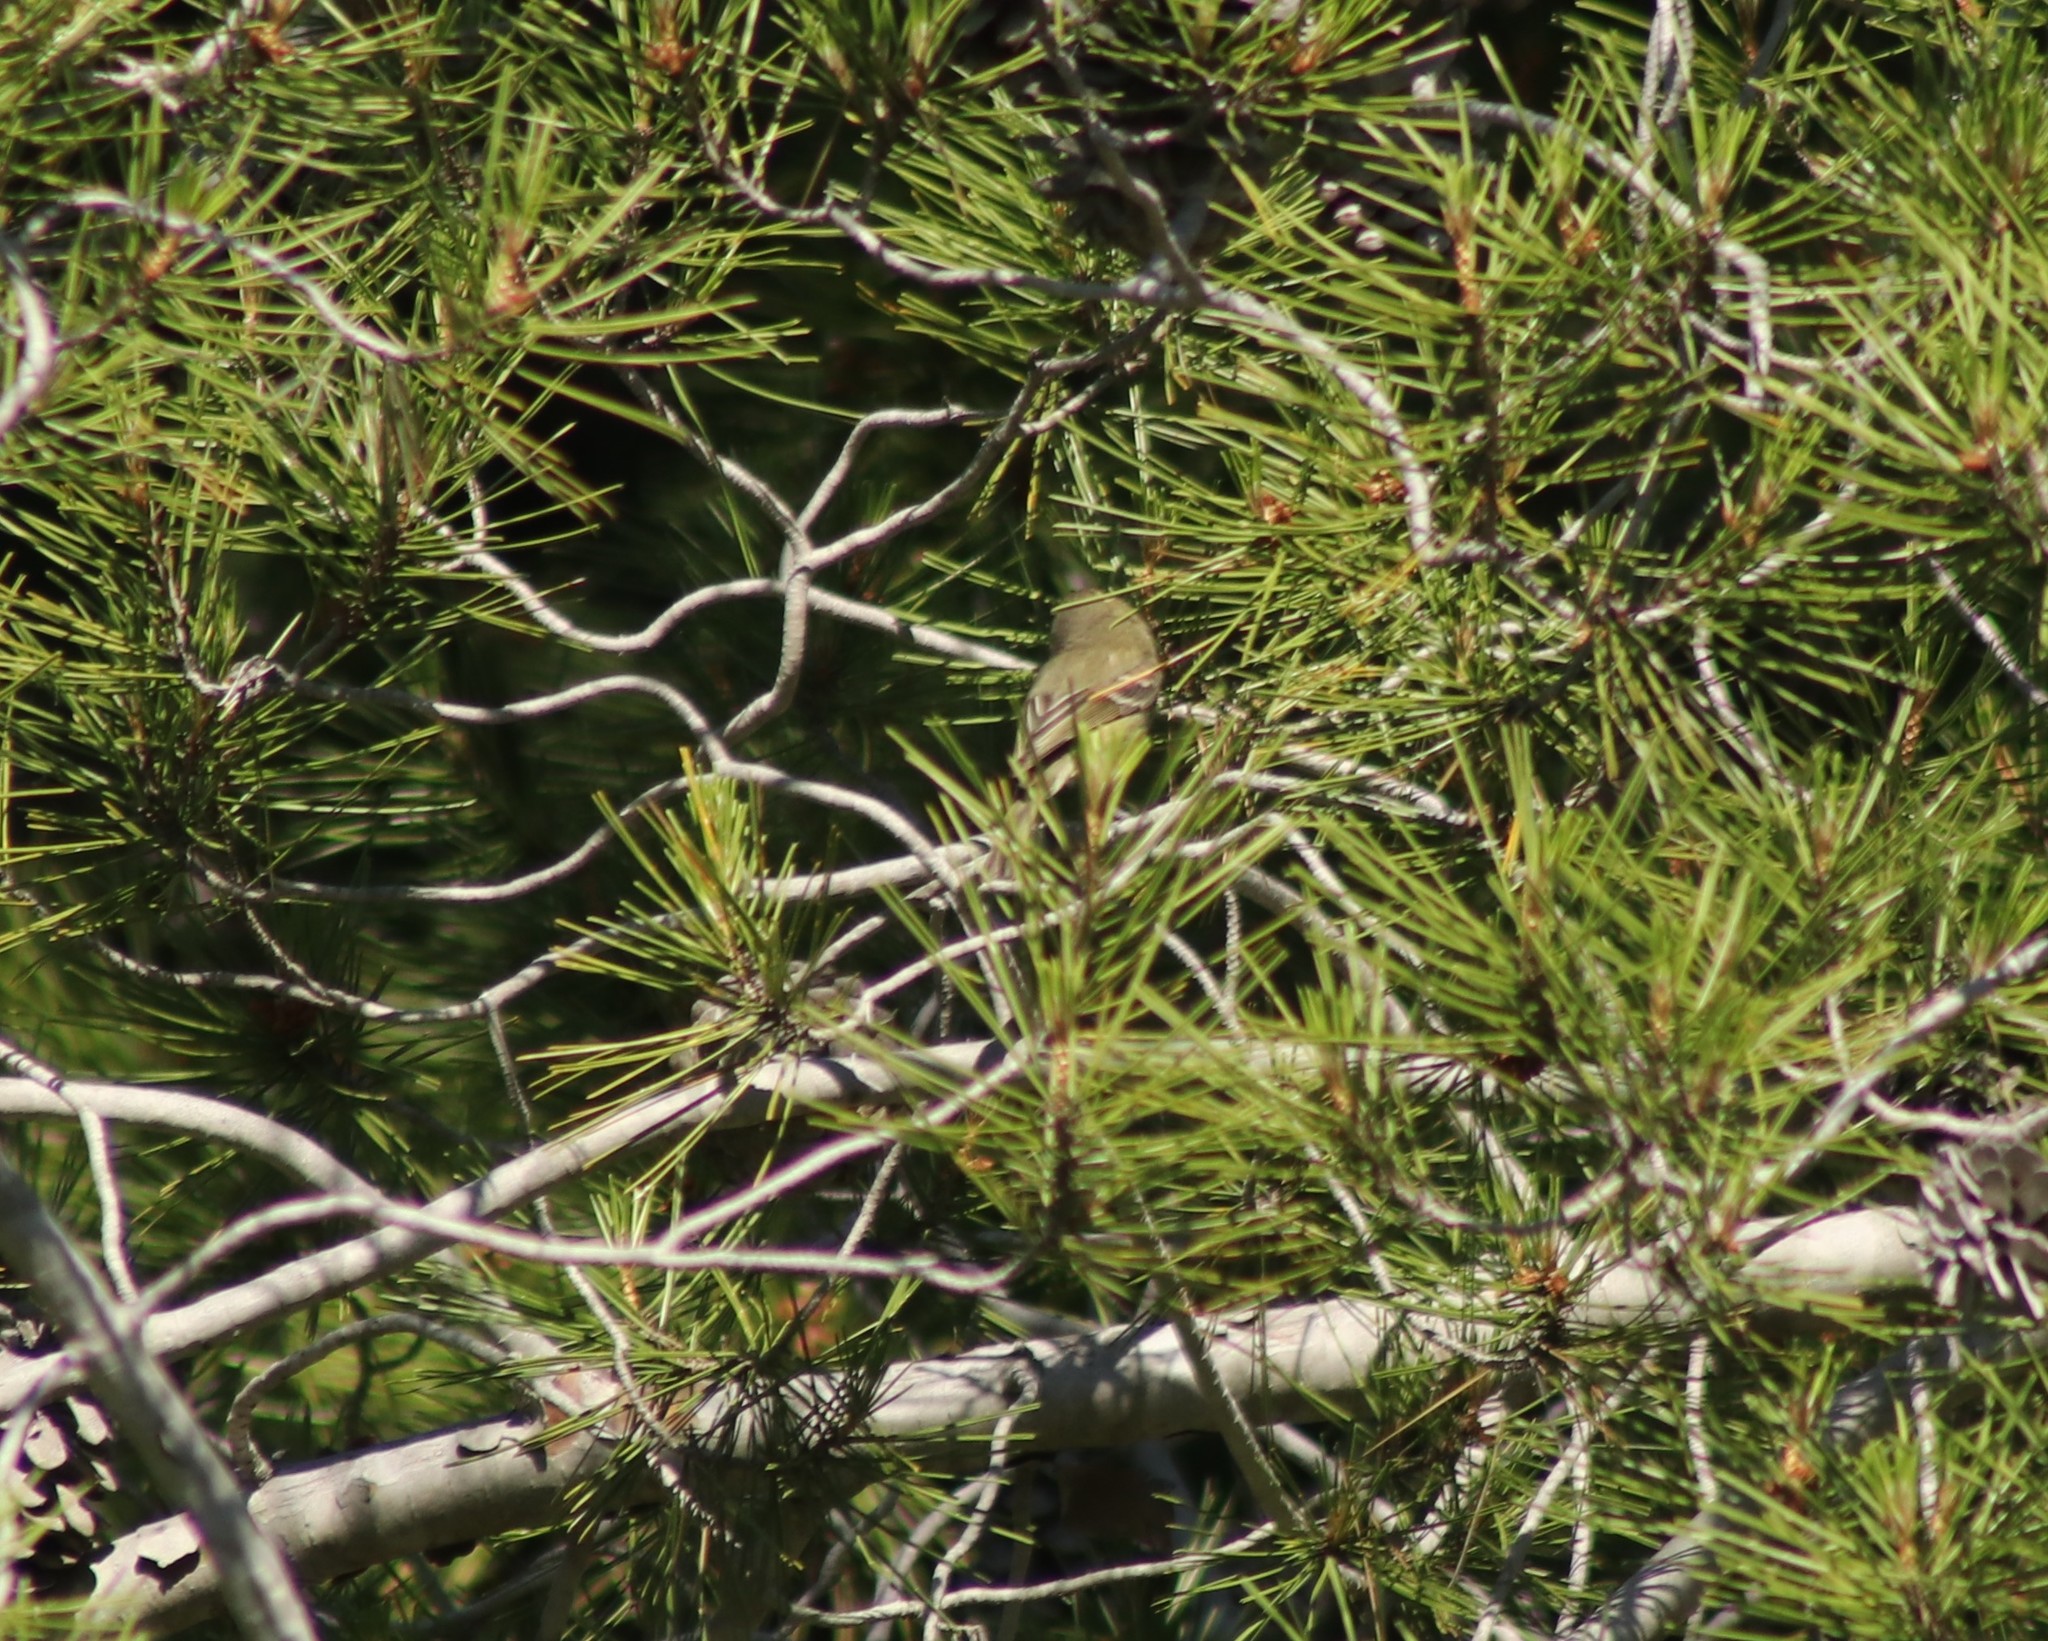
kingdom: Animalia
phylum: Chordata
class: Aves
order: Passeriformes
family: Vireonidae
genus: Vireo
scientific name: Vireo huttoni
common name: Hutton's vireo
